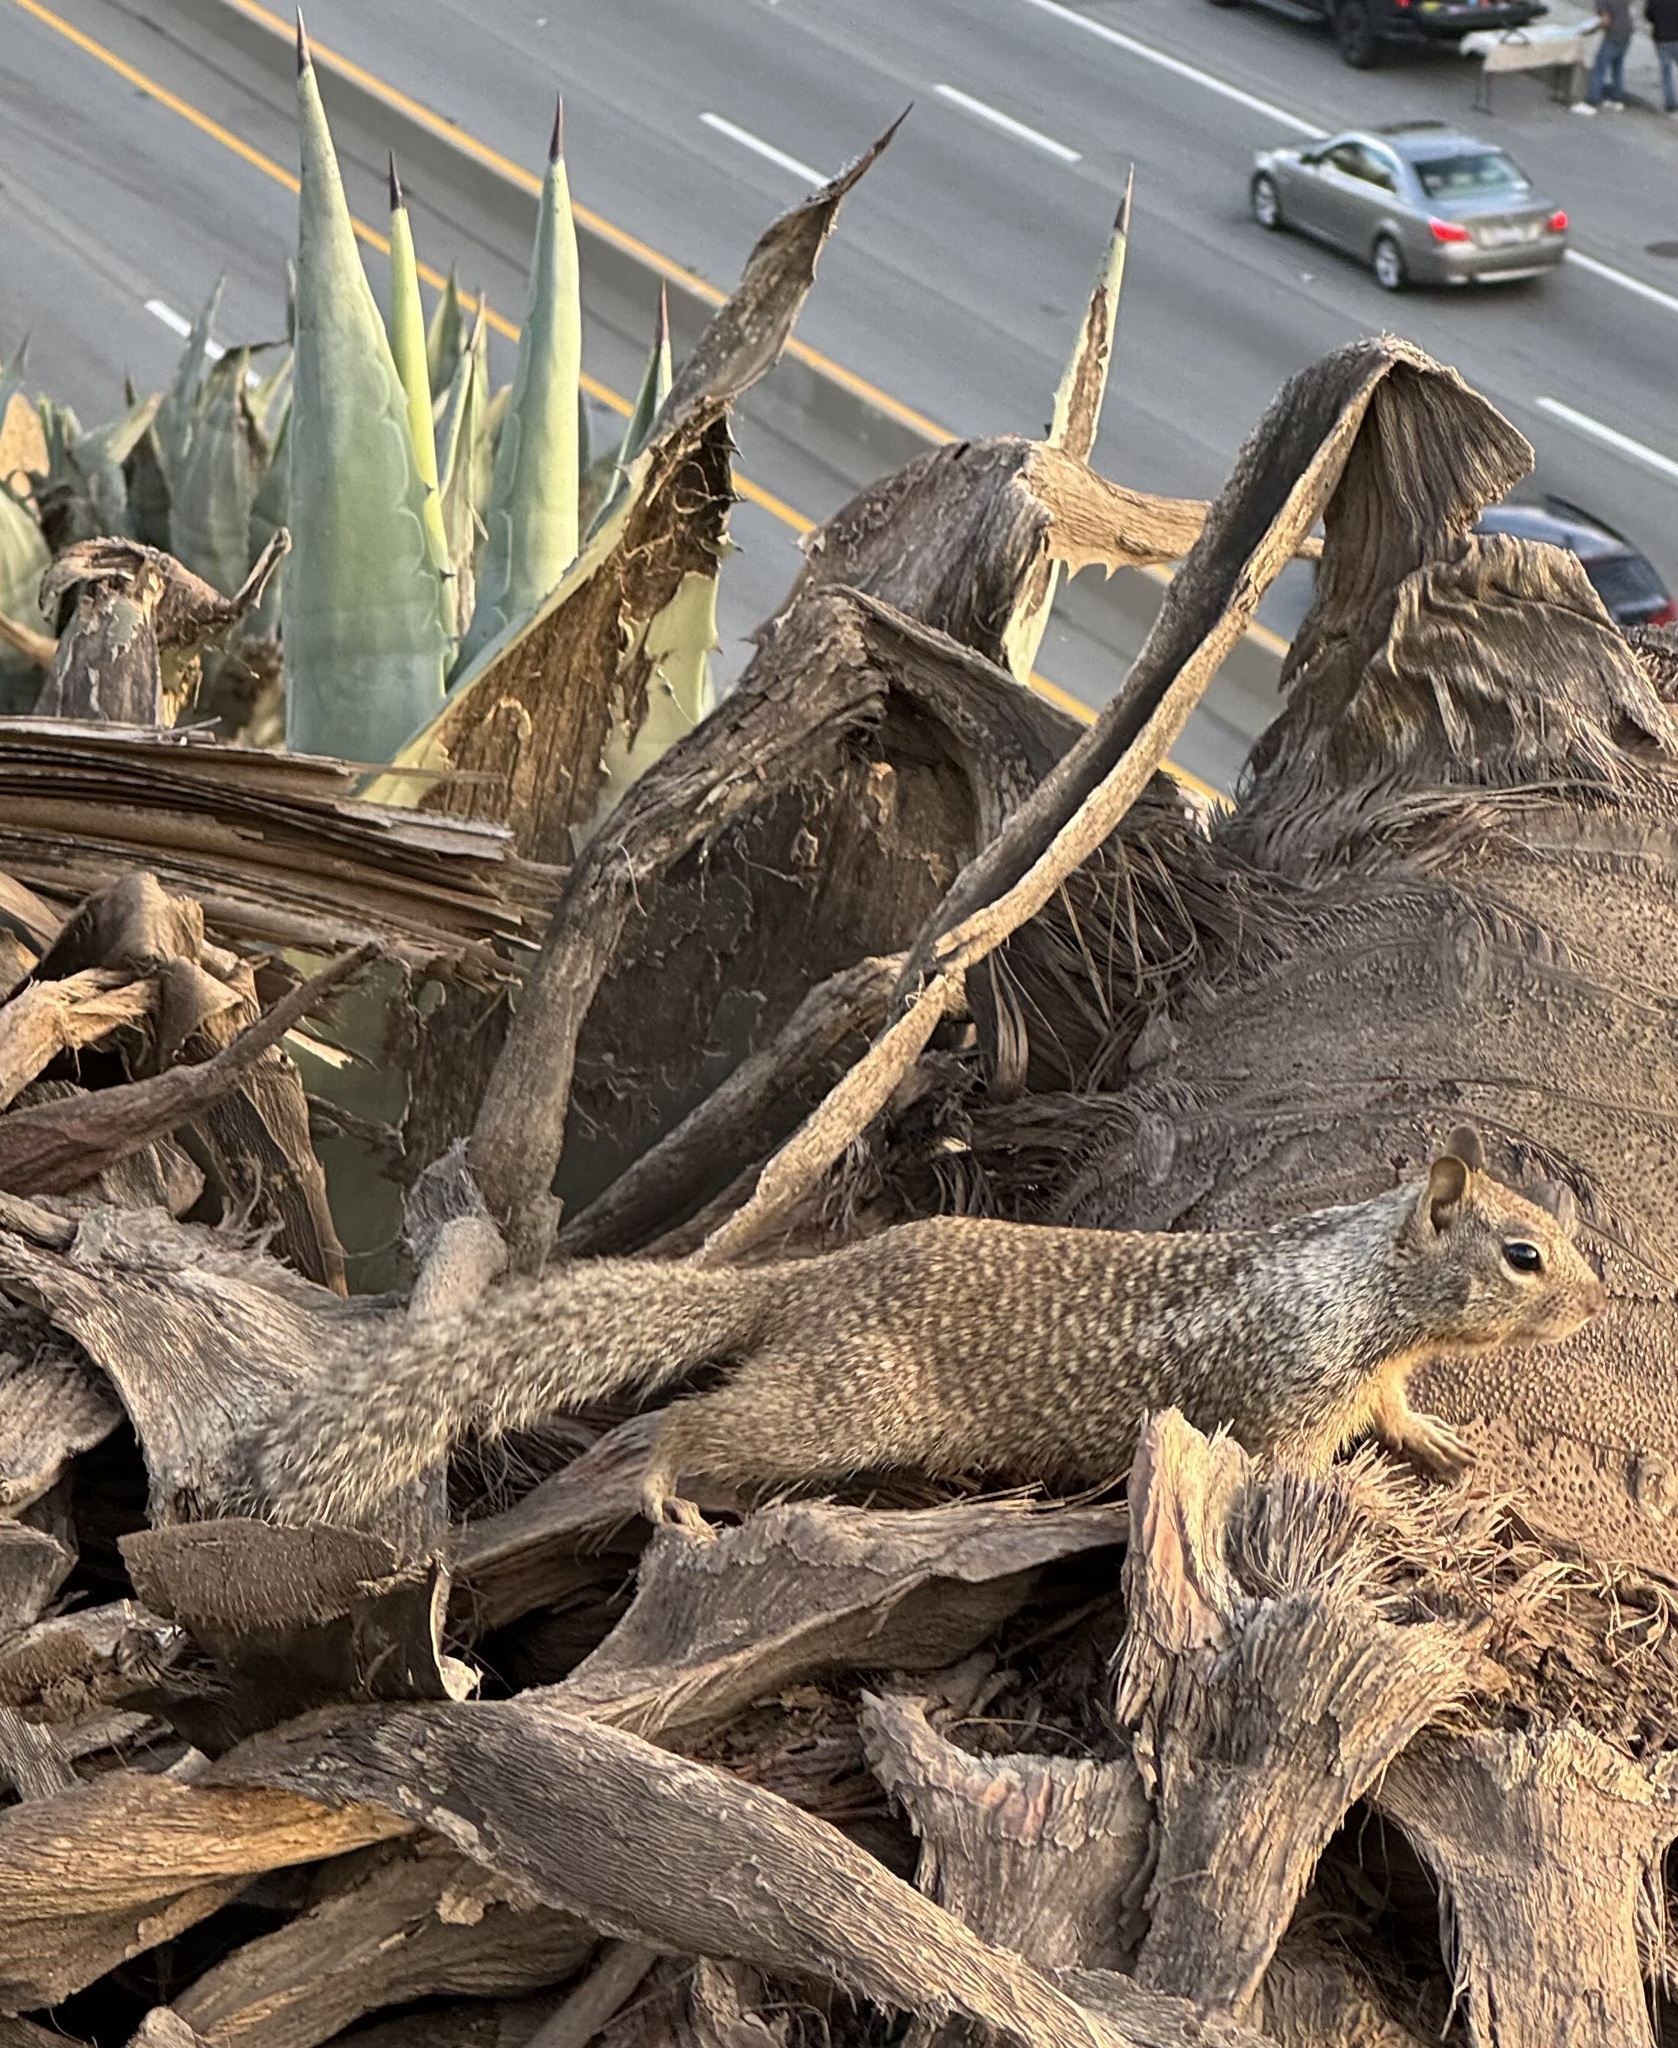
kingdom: Animalia
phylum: Chordata
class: Mammalia
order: Rodentia
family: Sciuridae
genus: Otospermophilus
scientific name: Otospermophilus beecheyi
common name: California ground squirrel
